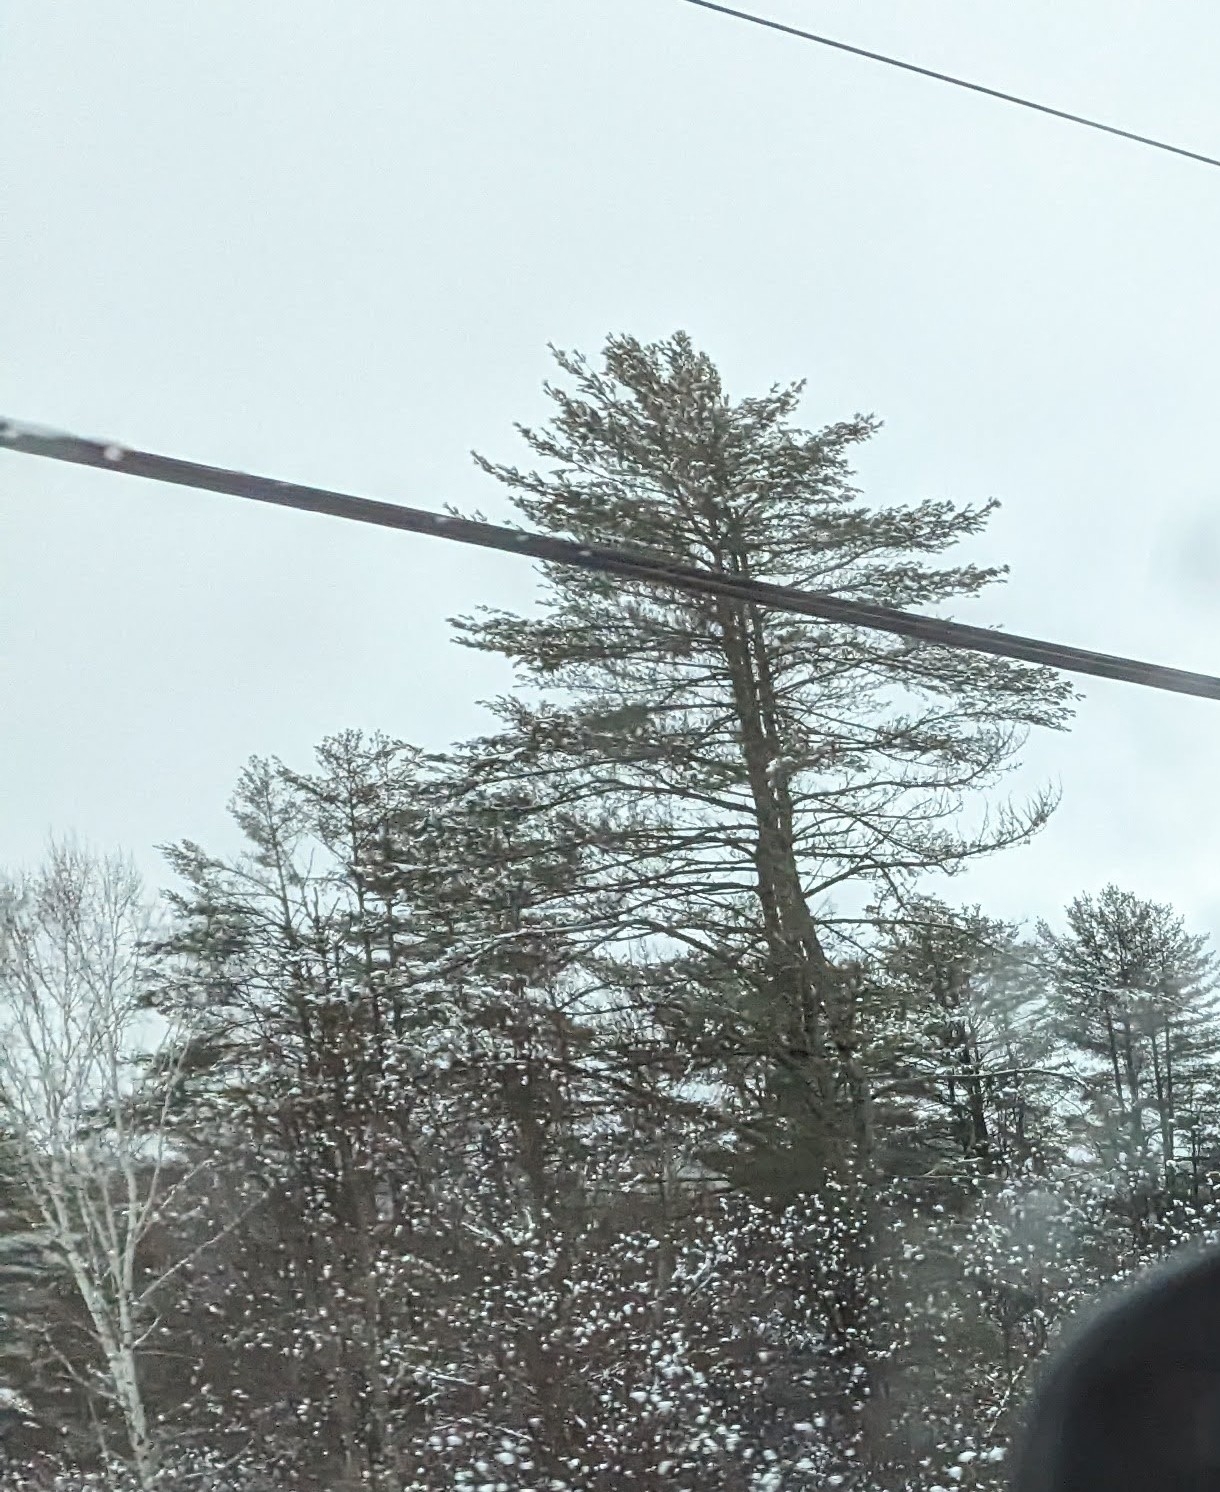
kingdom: Plantae
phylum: Tracheophyta
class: Pinopsida
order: Pinales
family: Pinaceae
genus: Pinus
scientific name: Pinus strobus
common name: Weymouth pine
